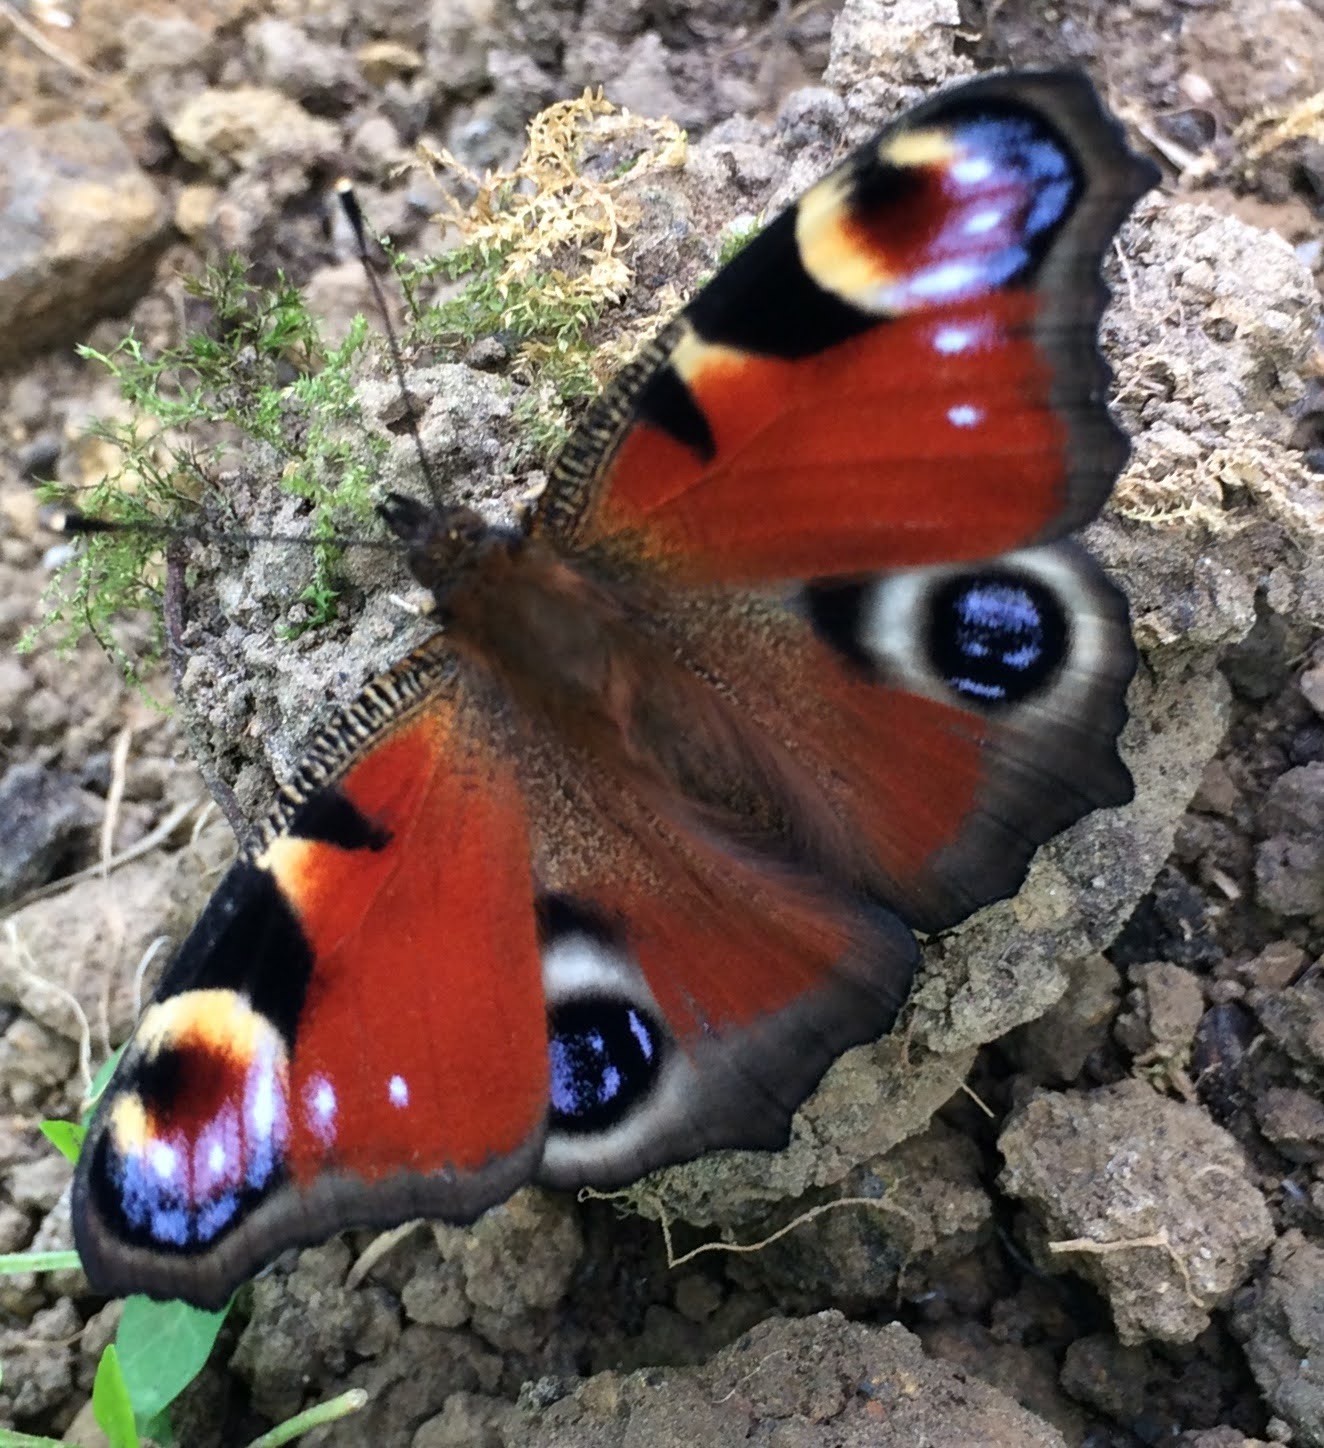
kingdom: Animalia
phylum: Arthropoda
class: Insecta
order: Lepidoptera
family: Nymphalidae
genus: Aglais
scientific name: Aglais io
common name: Peacock
